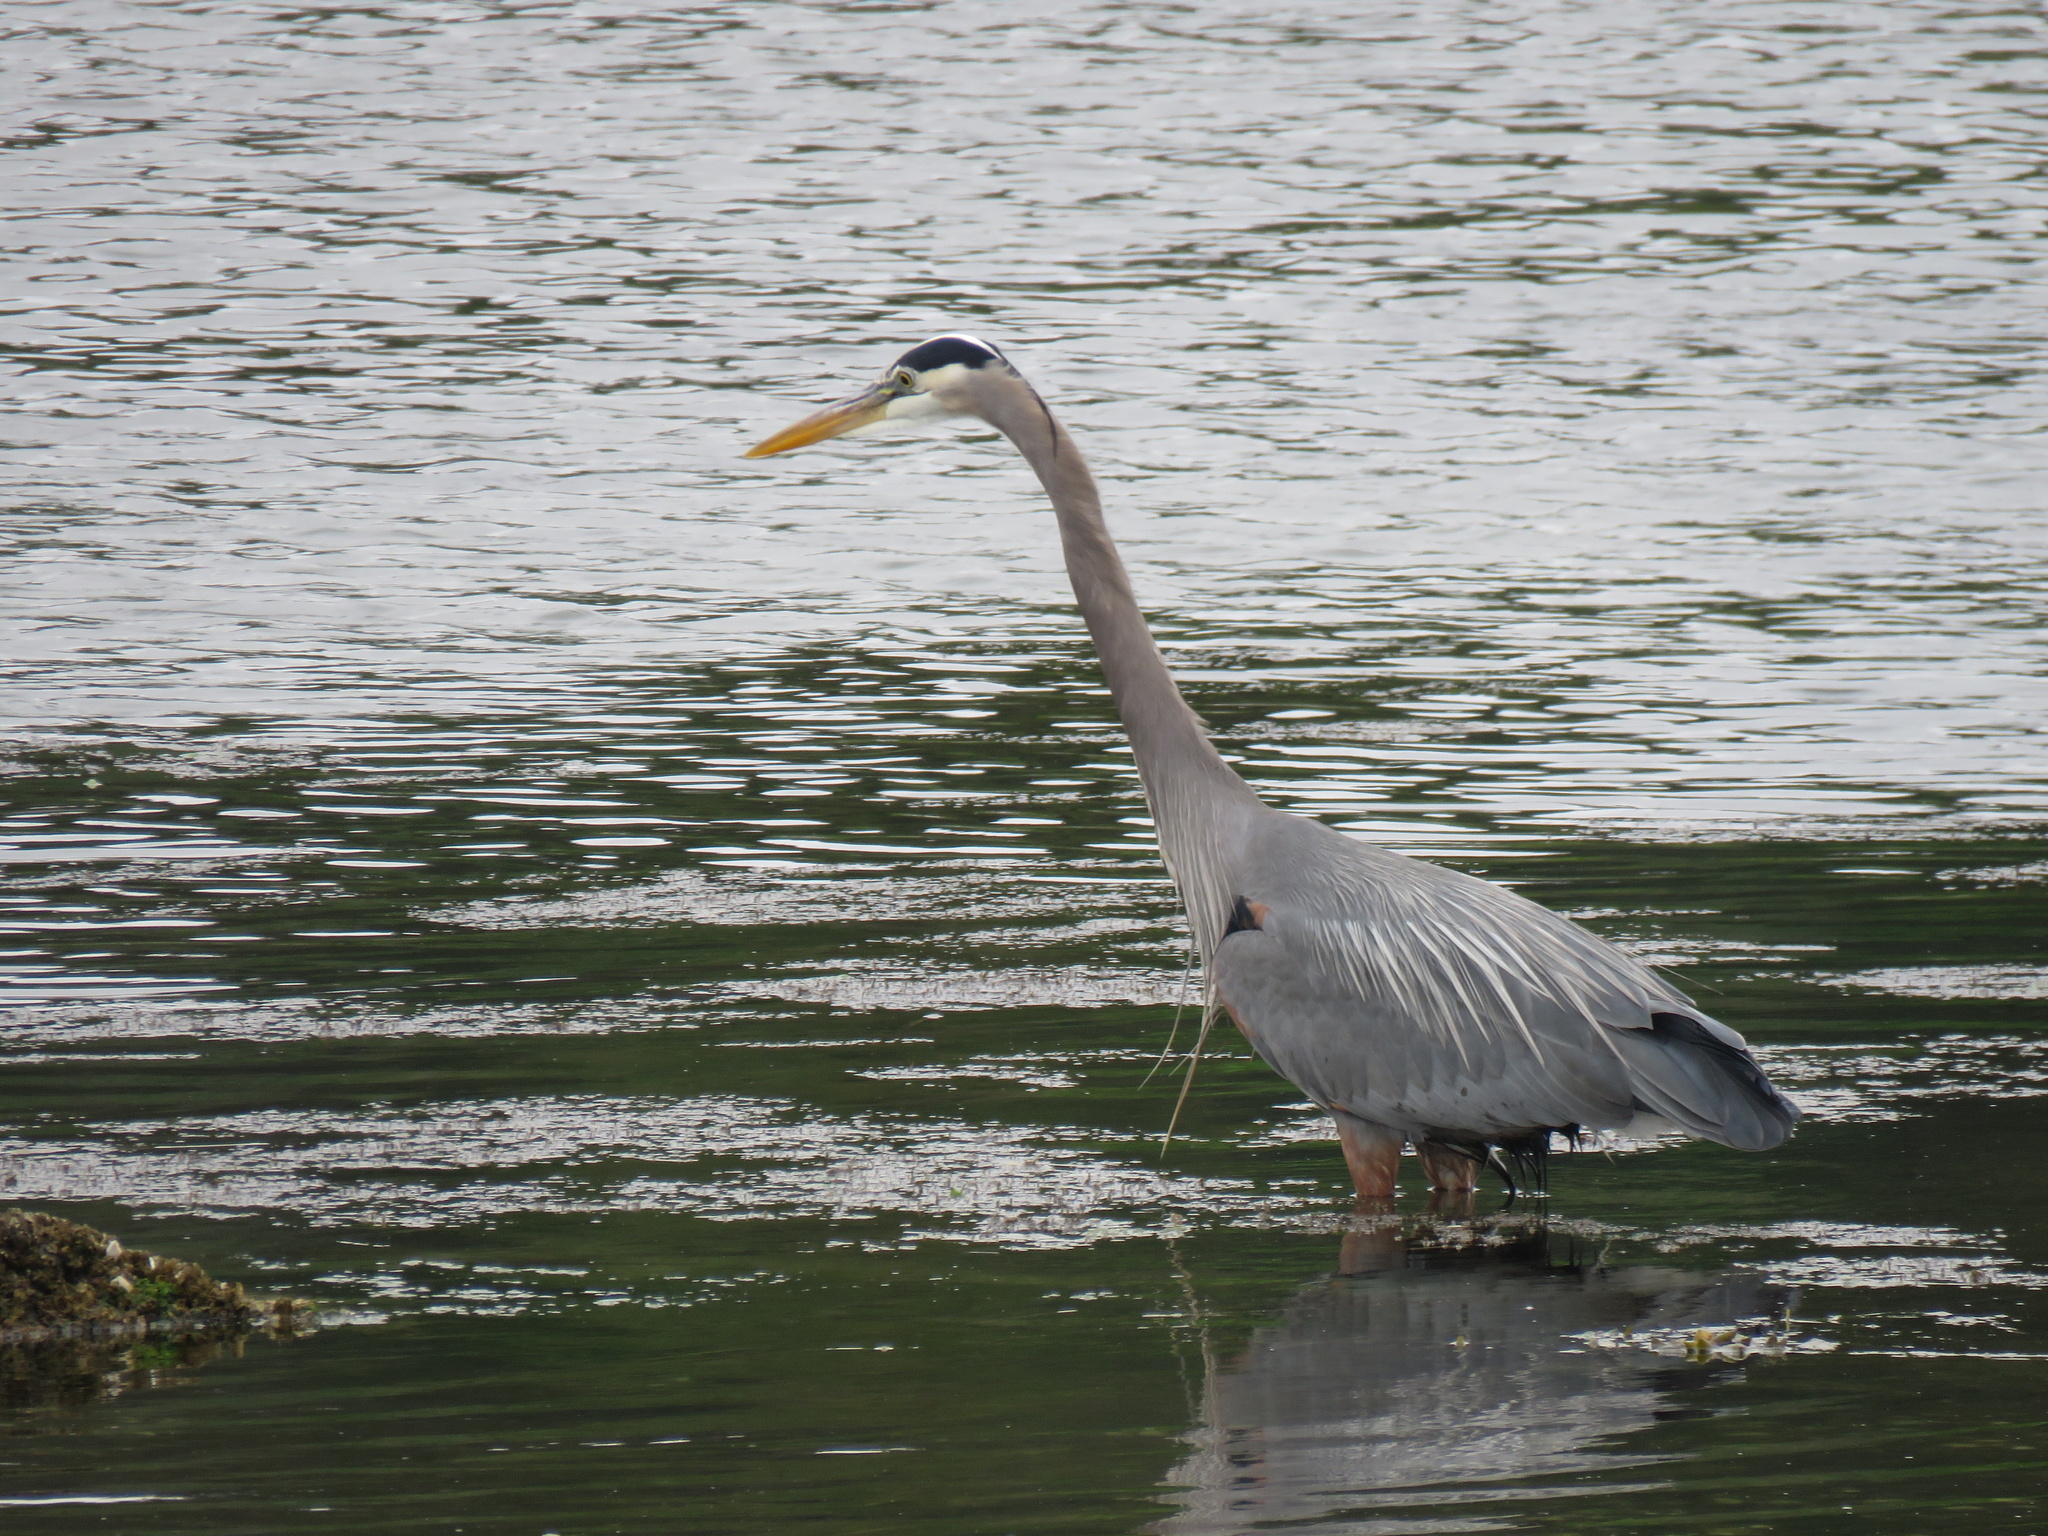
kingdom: Animalia
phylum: Chordata
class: Aves
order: Pelecaniformes
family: Ardeidae
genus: Ardea
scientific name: Ardea herodias
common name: Great blue heron
